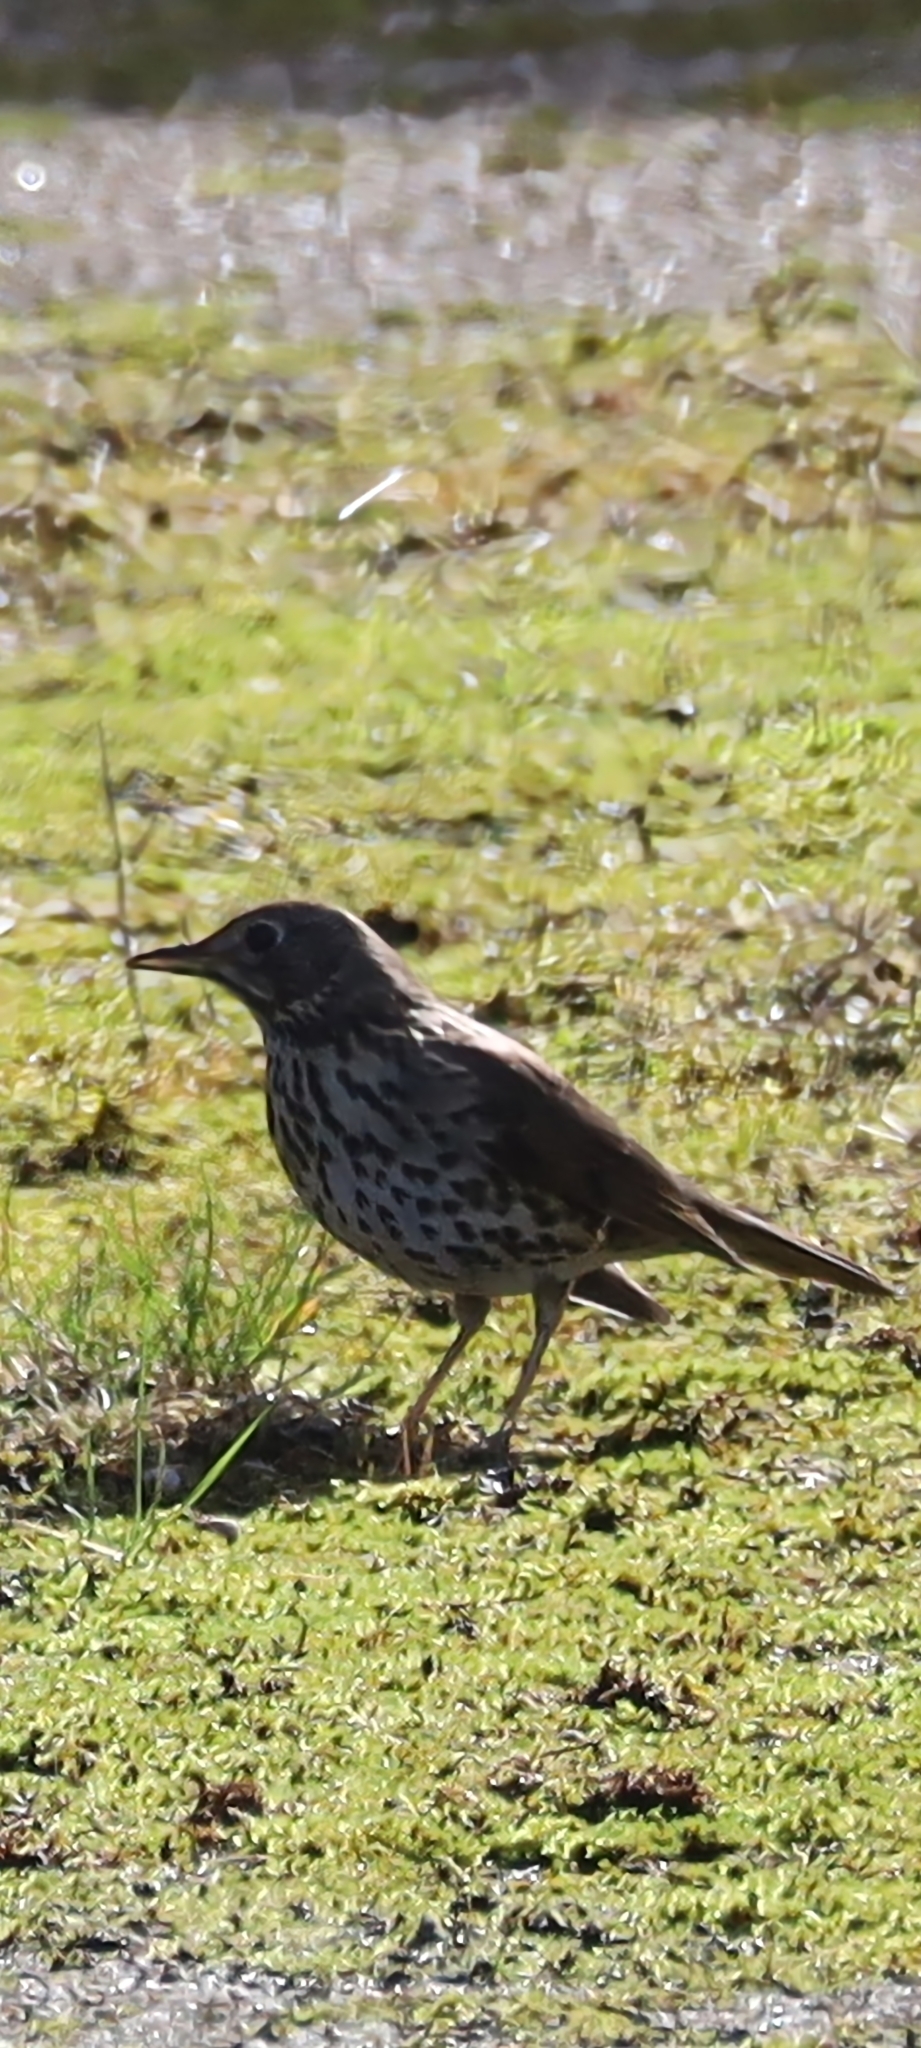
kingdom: Animalia
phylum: Chordata
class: Aves
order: Passeriformes
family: Turdidae
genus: Turdus
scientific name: Turdus philomelos
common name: Song thrush
